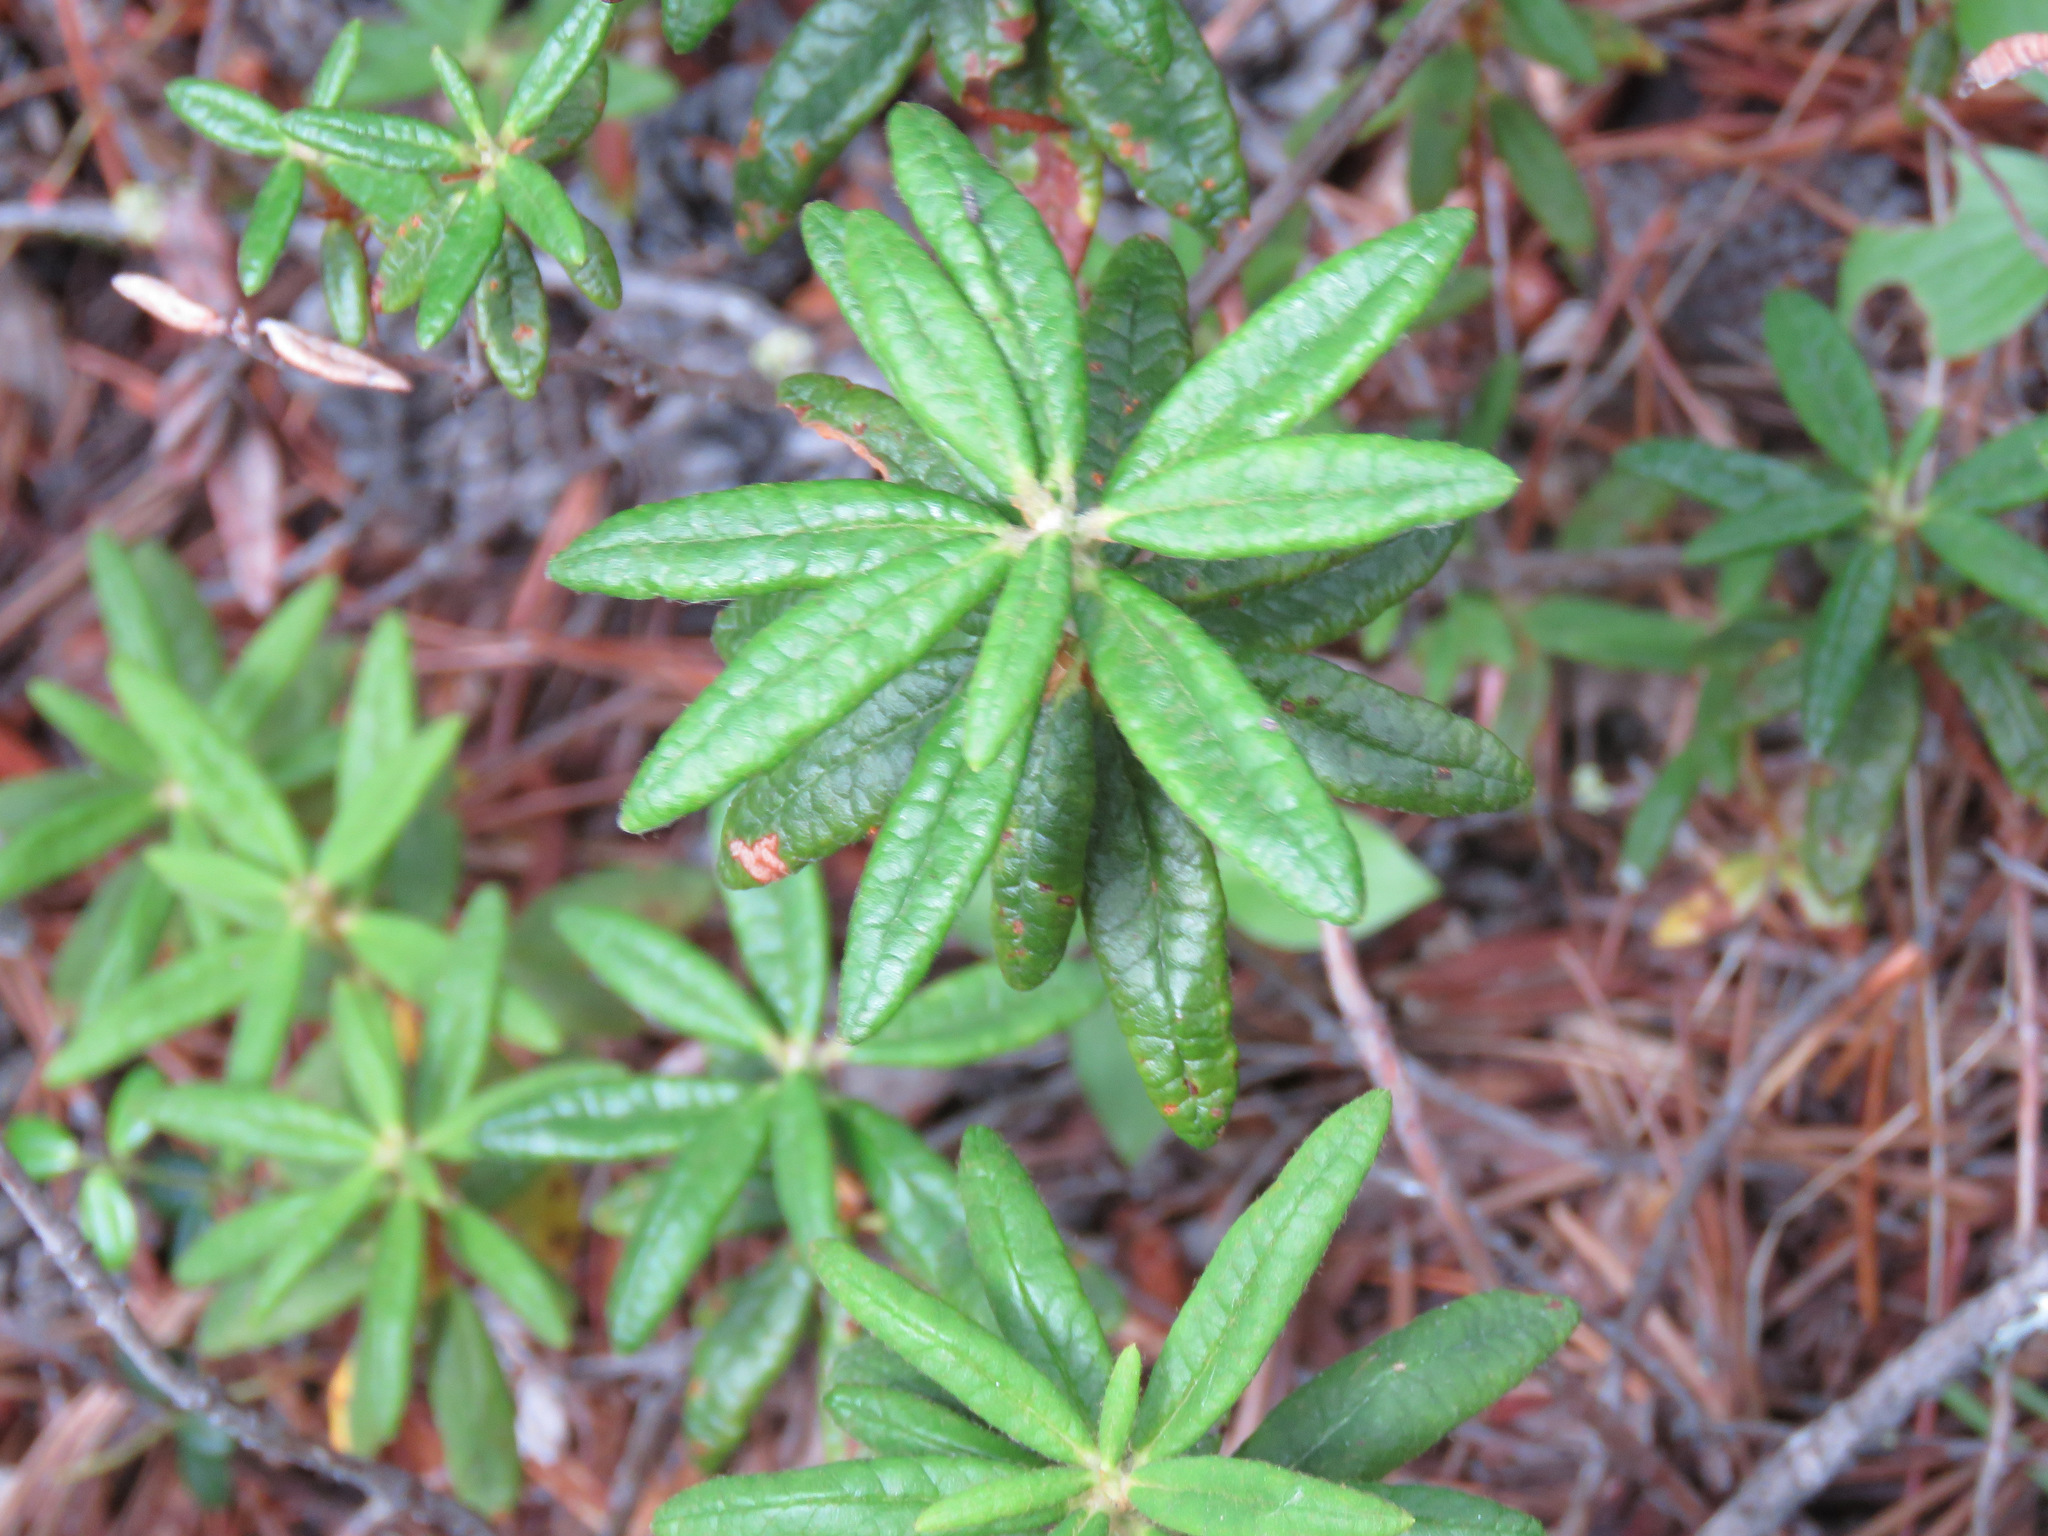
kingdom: Plantae
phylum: Tracheophyta
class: Magnoliopsida
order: Ericales
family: Ericaceae
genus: Rhododendron
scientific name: Rhododendron groenlandicum
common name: Bog labrador tea
